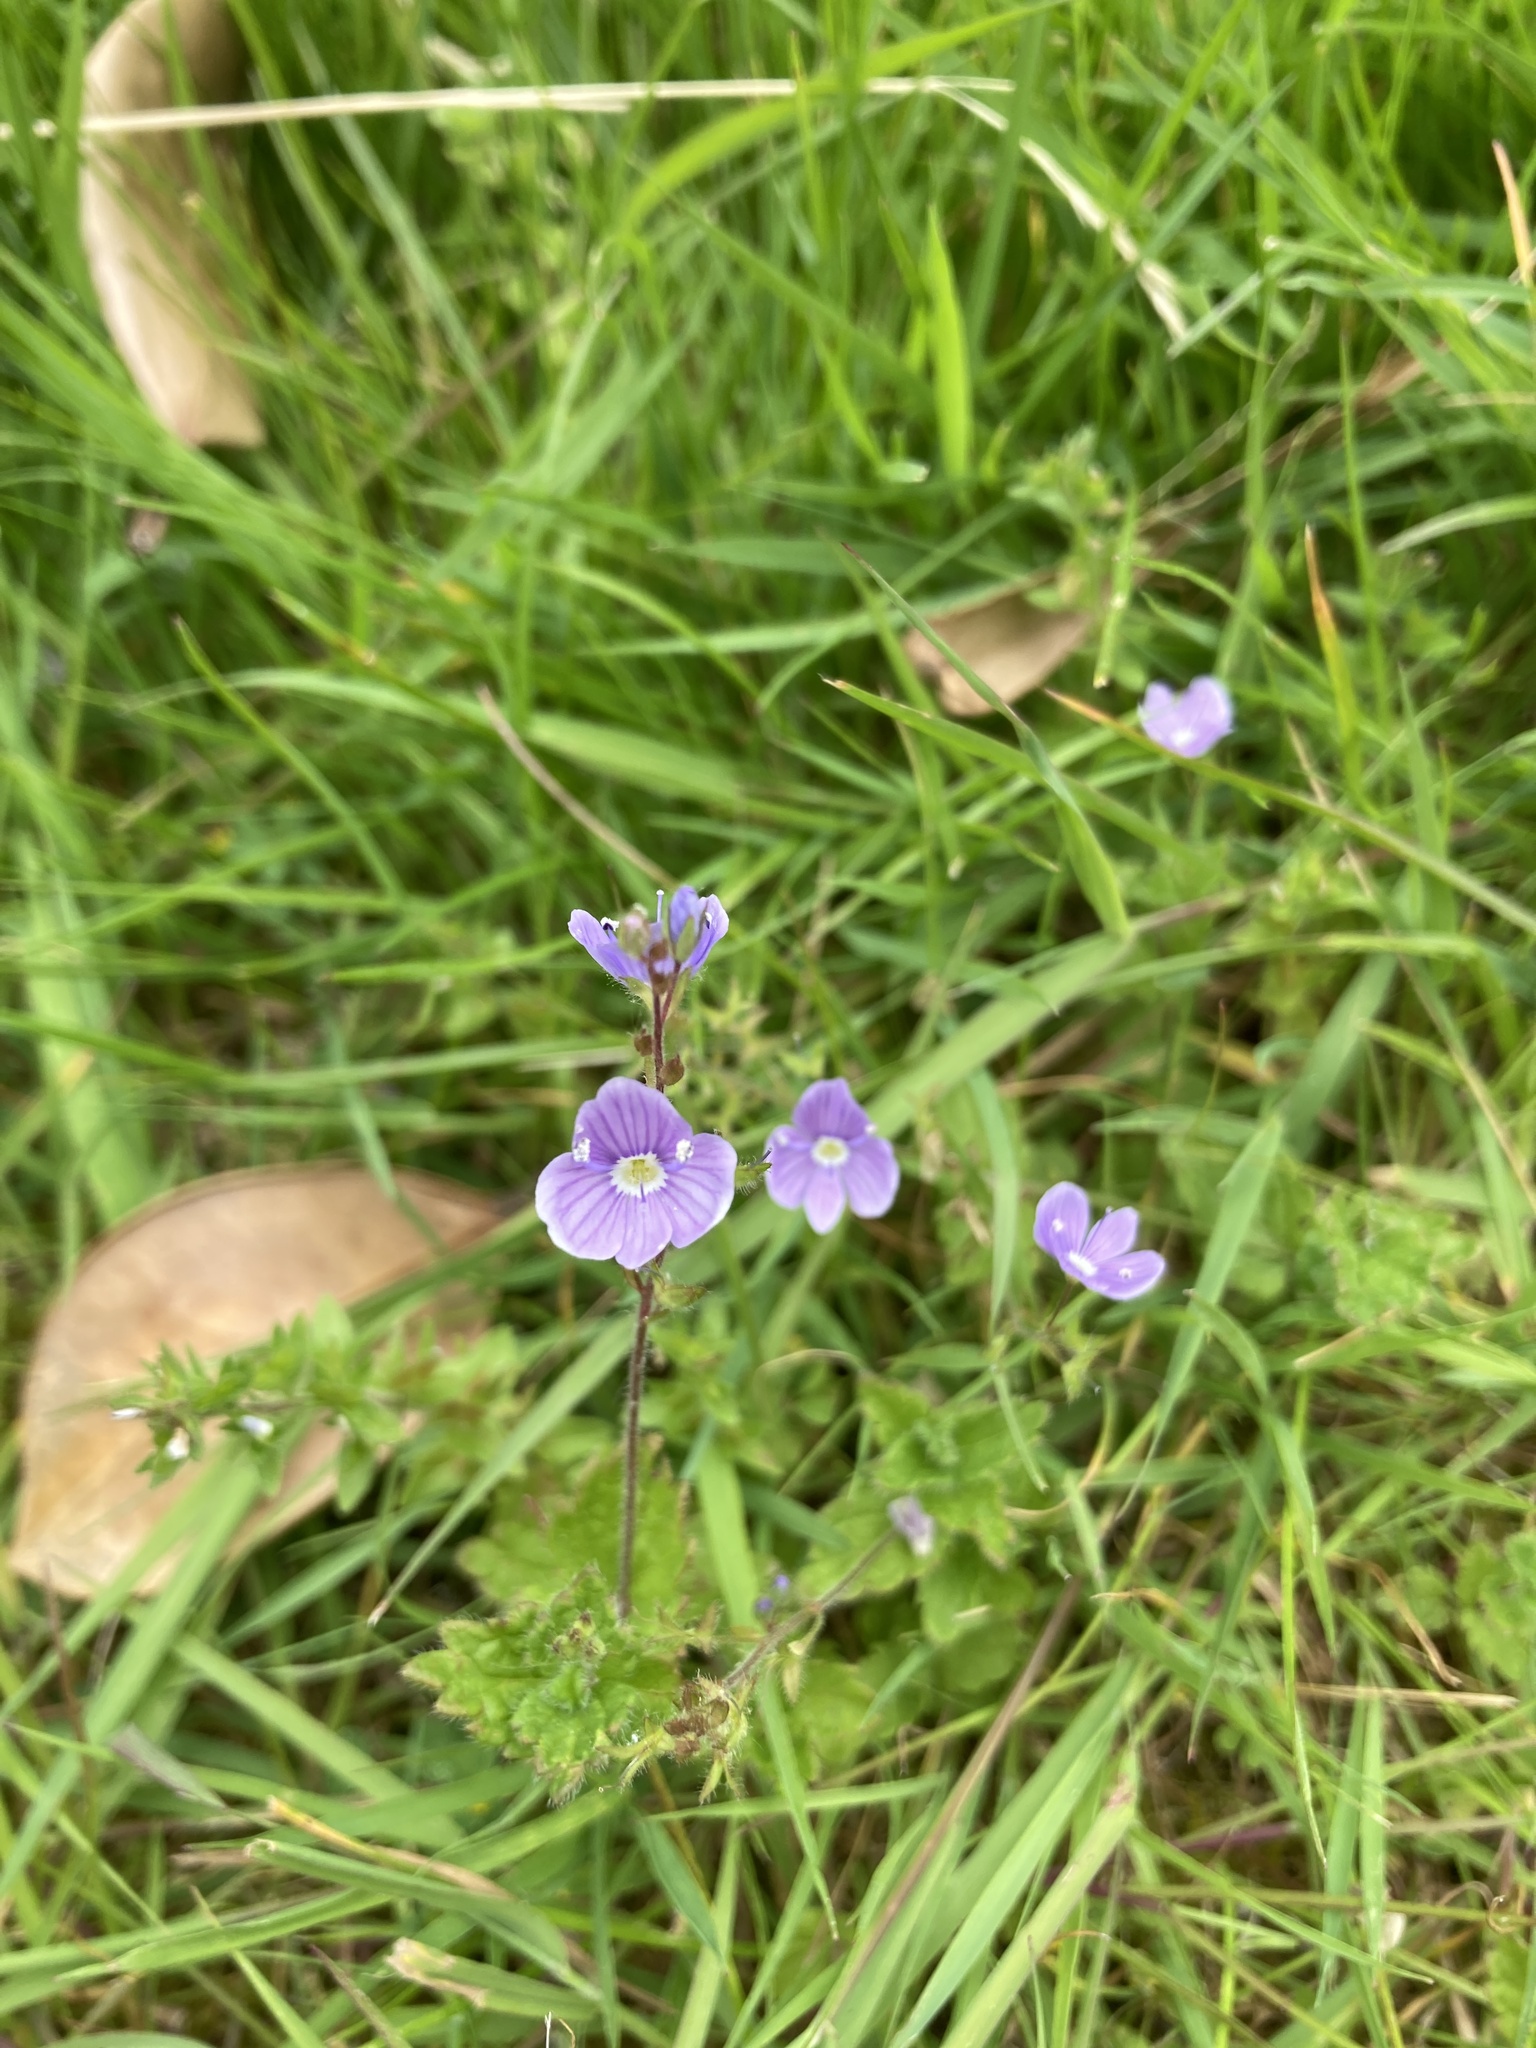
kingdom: Plantae
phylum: Tracheophyta
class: Magnoliopsida
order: Lamiales
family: Plantaginaceae
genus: Veronica
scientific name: Veronica chamaedrys
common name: Germander speedwell
